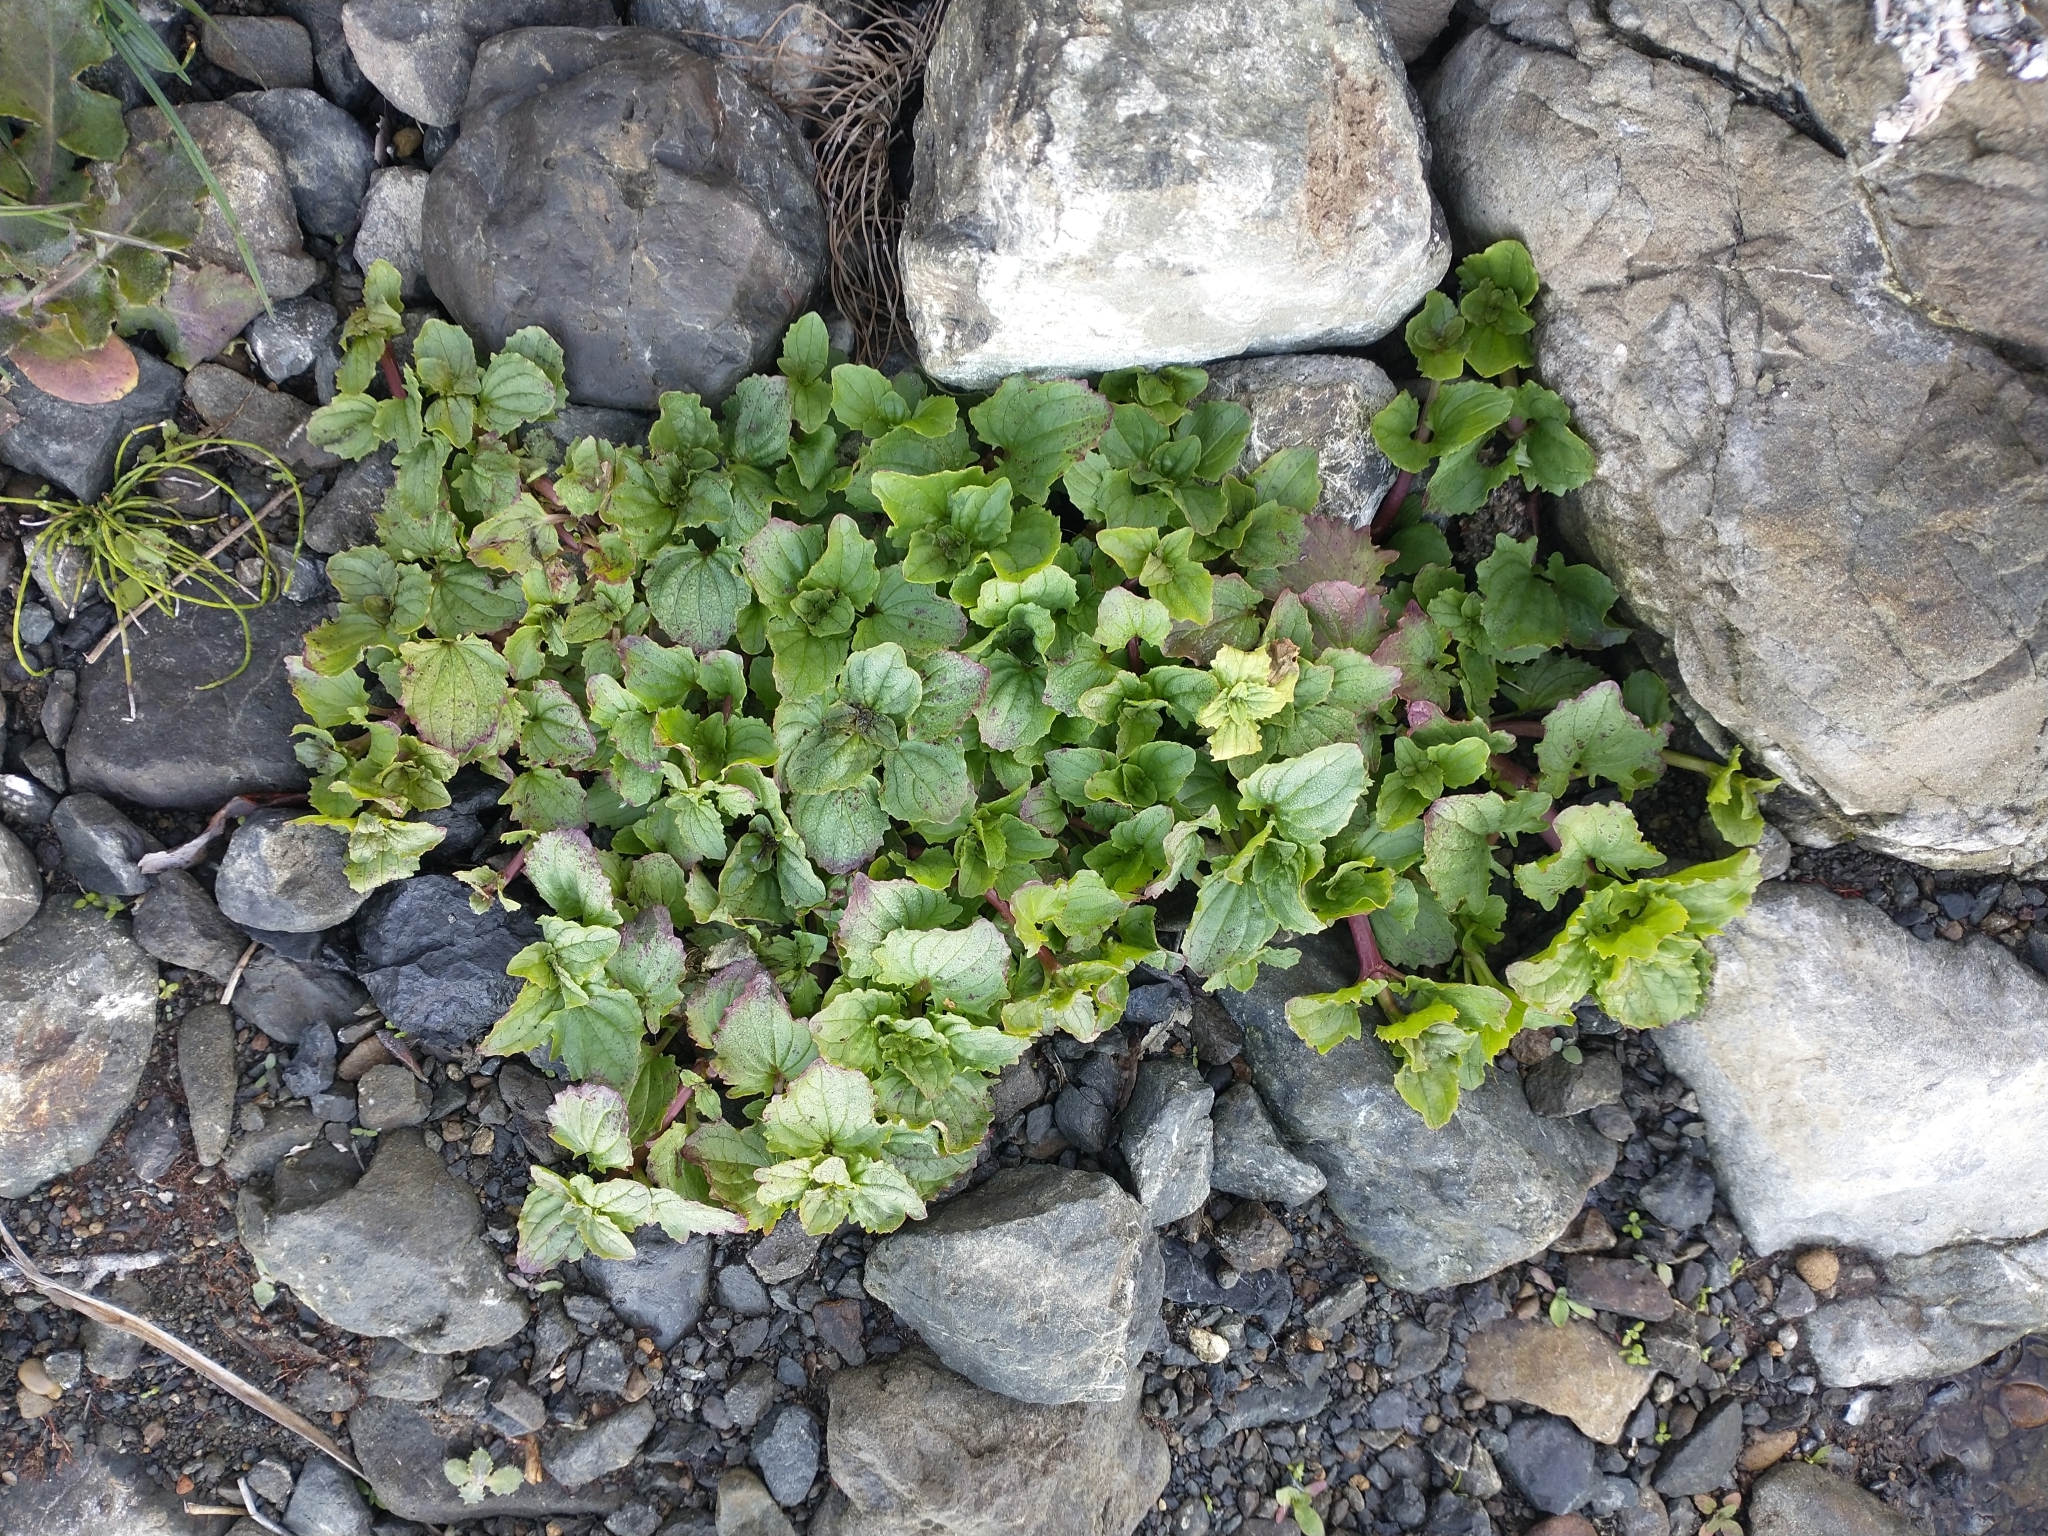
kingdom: Plantae
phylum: Tracheophyta
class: Magnoliopsida
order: Lamiales
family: Phrymaceae
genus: Erythranthe
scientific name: Erythranthe grandis
